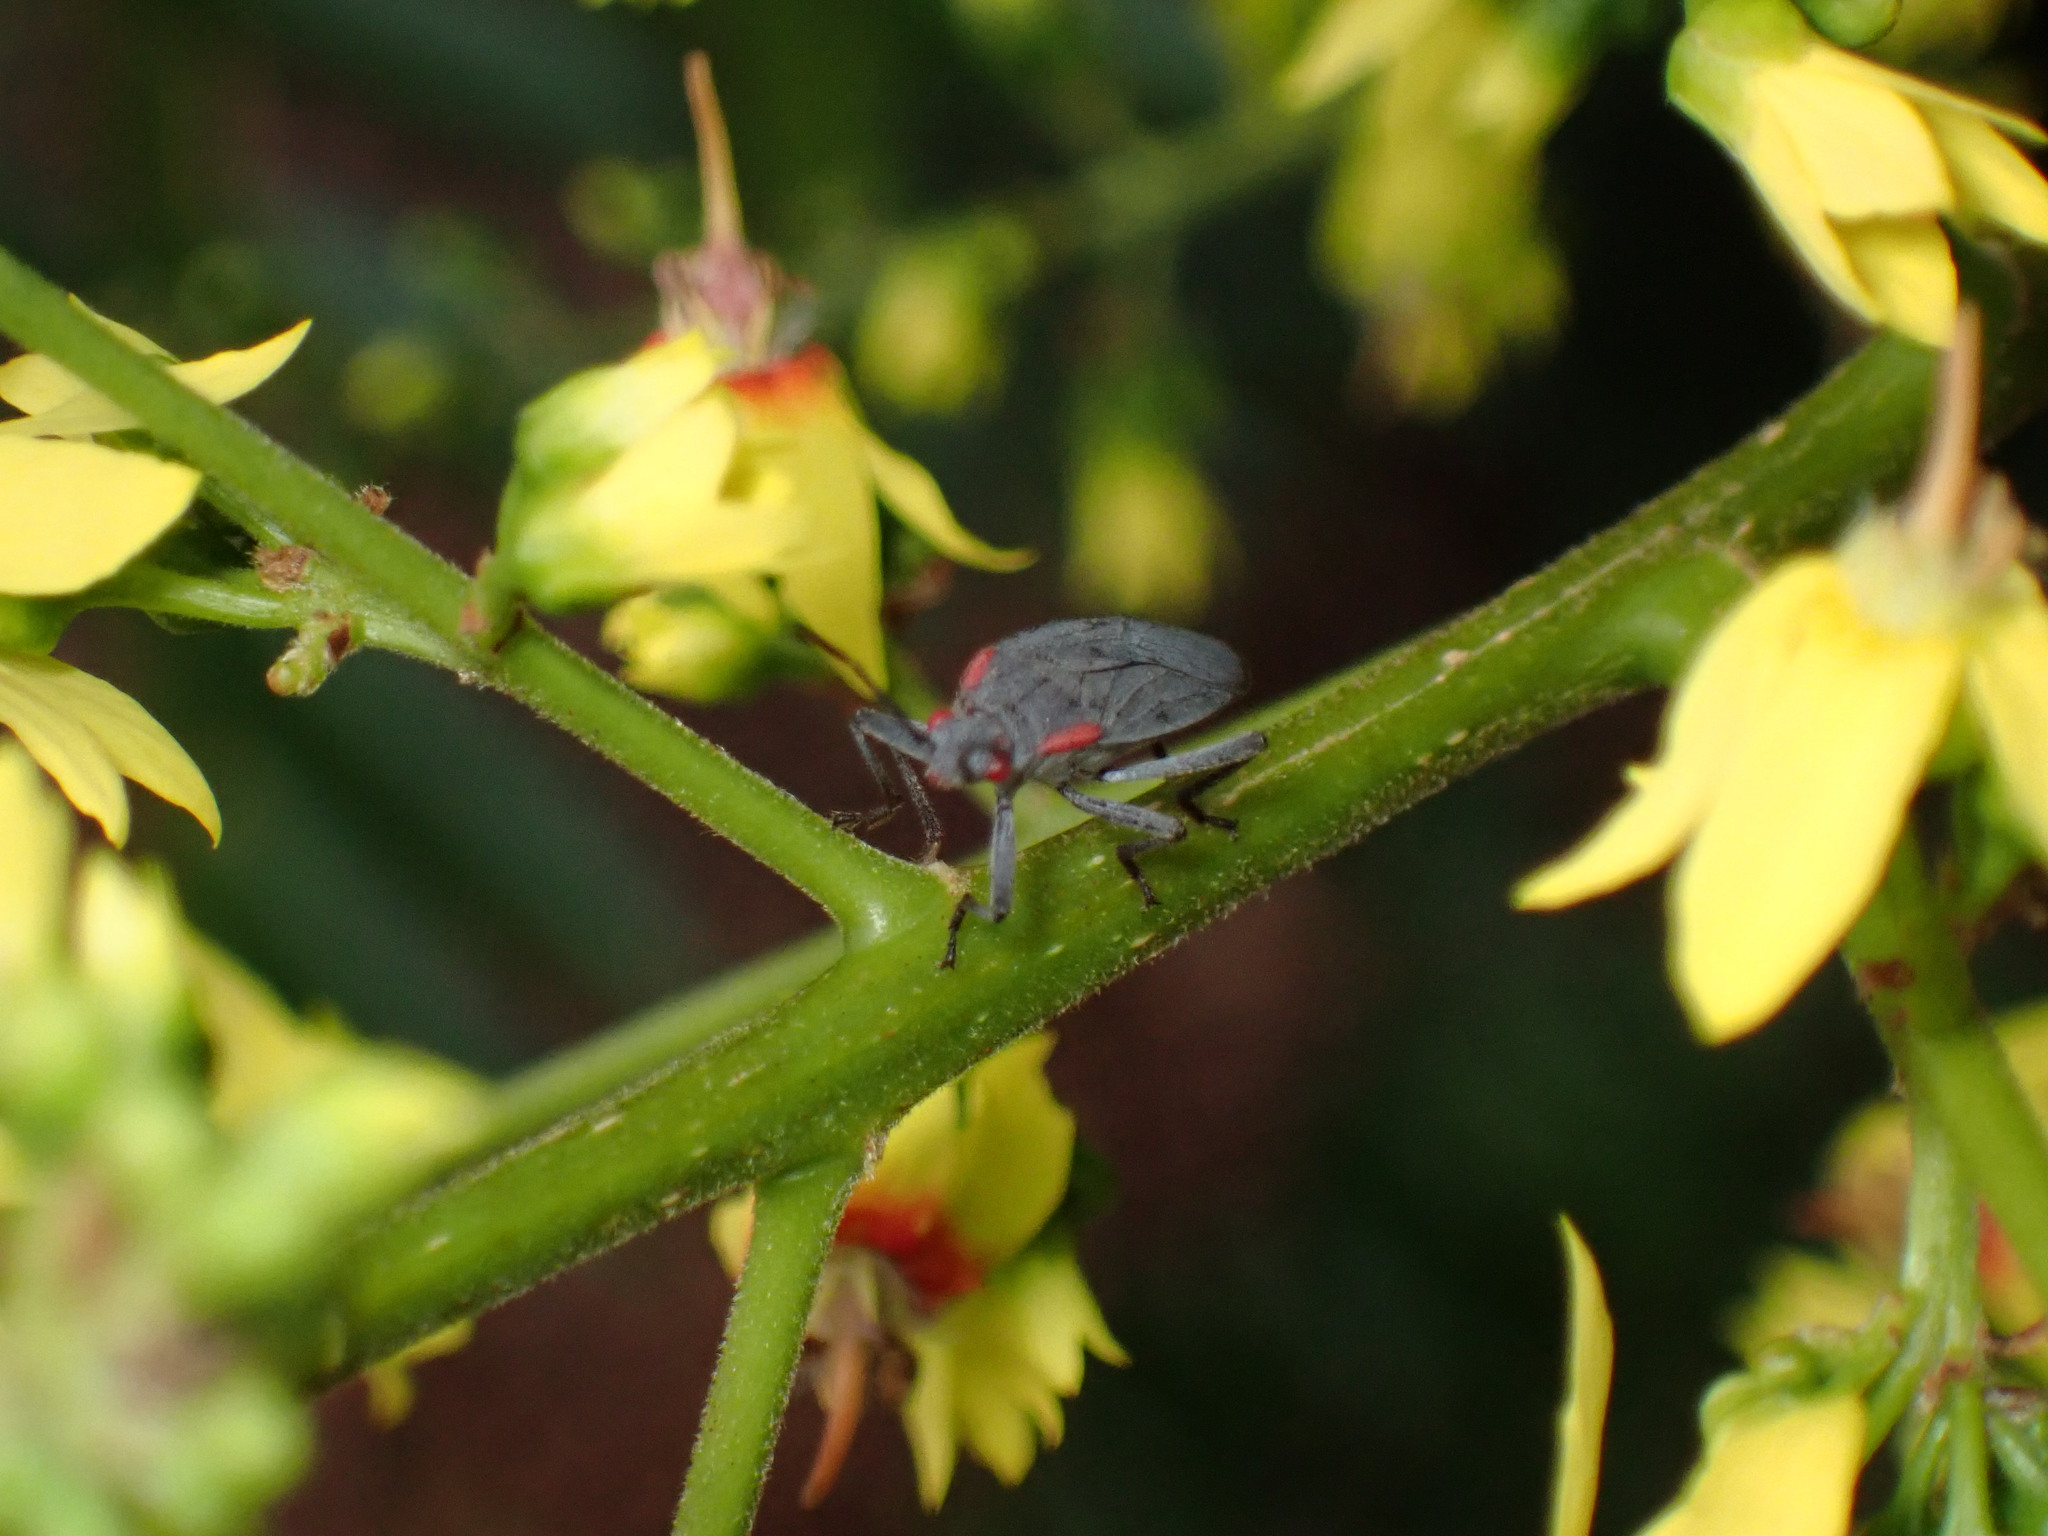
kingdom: Animalia
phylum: Arthropoda
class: Insecta
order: Hemiptera
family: Rhopalidae
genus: Jadera
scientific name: Jadera haematoloma
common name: Red-shouldered bug
